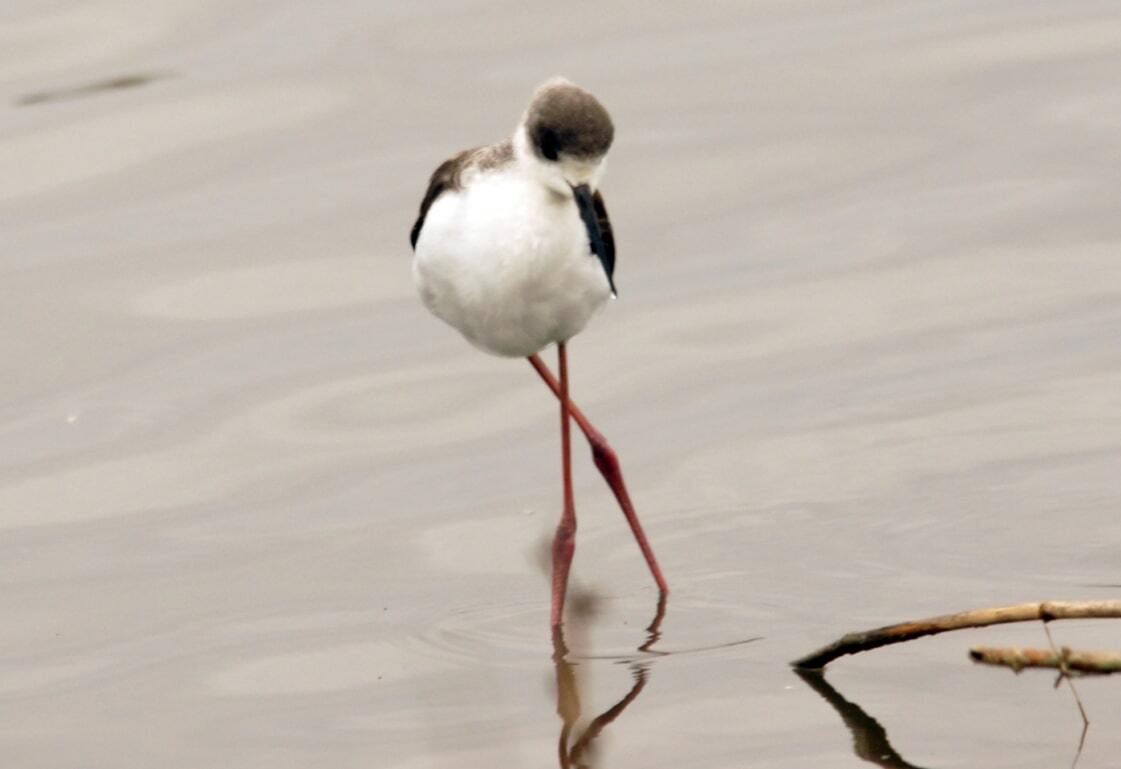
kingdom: Animalia
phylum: Chordata
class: Aves
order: Charadriiformes
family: Recurvirostridae
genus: Himantopus
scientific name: Himantopus himantopus
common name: Black-winged stilt
